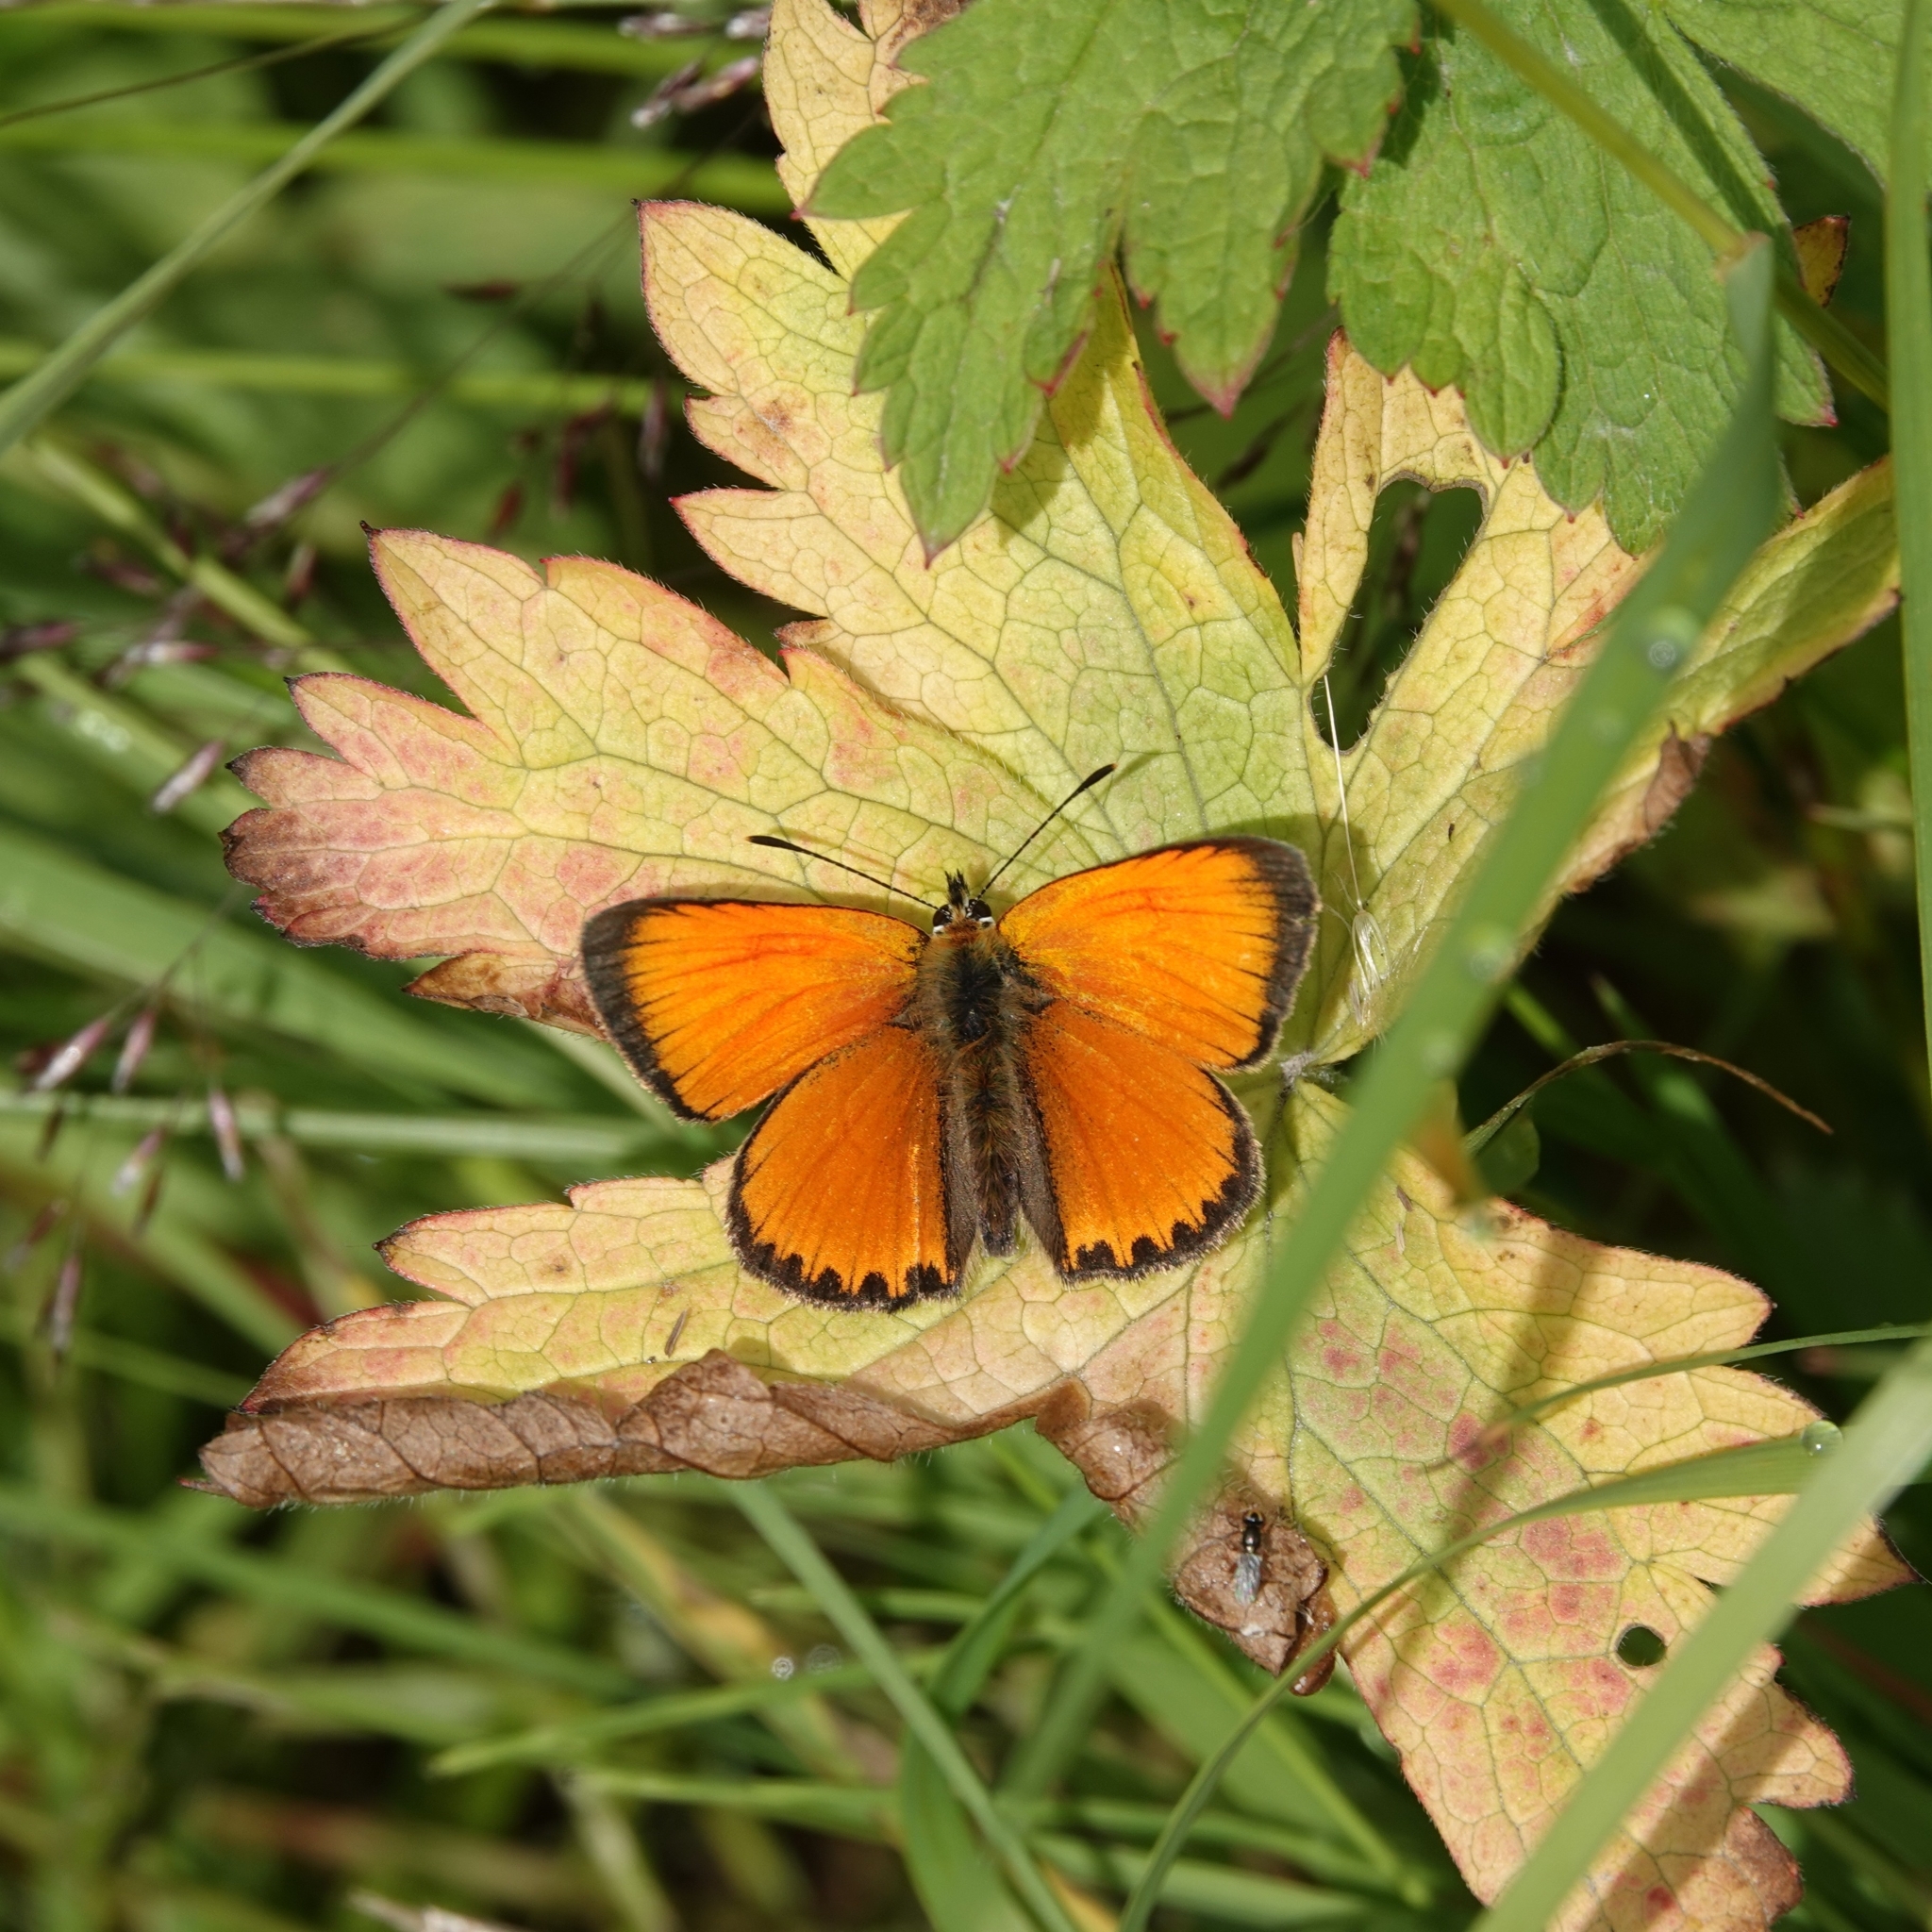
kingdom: Animalia
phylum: Arthropoda
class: Insecta
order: Lepidoptera
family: Lycaenidae
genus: Lycaena
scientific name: Lycaena virgaureae
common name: Scarce copper
